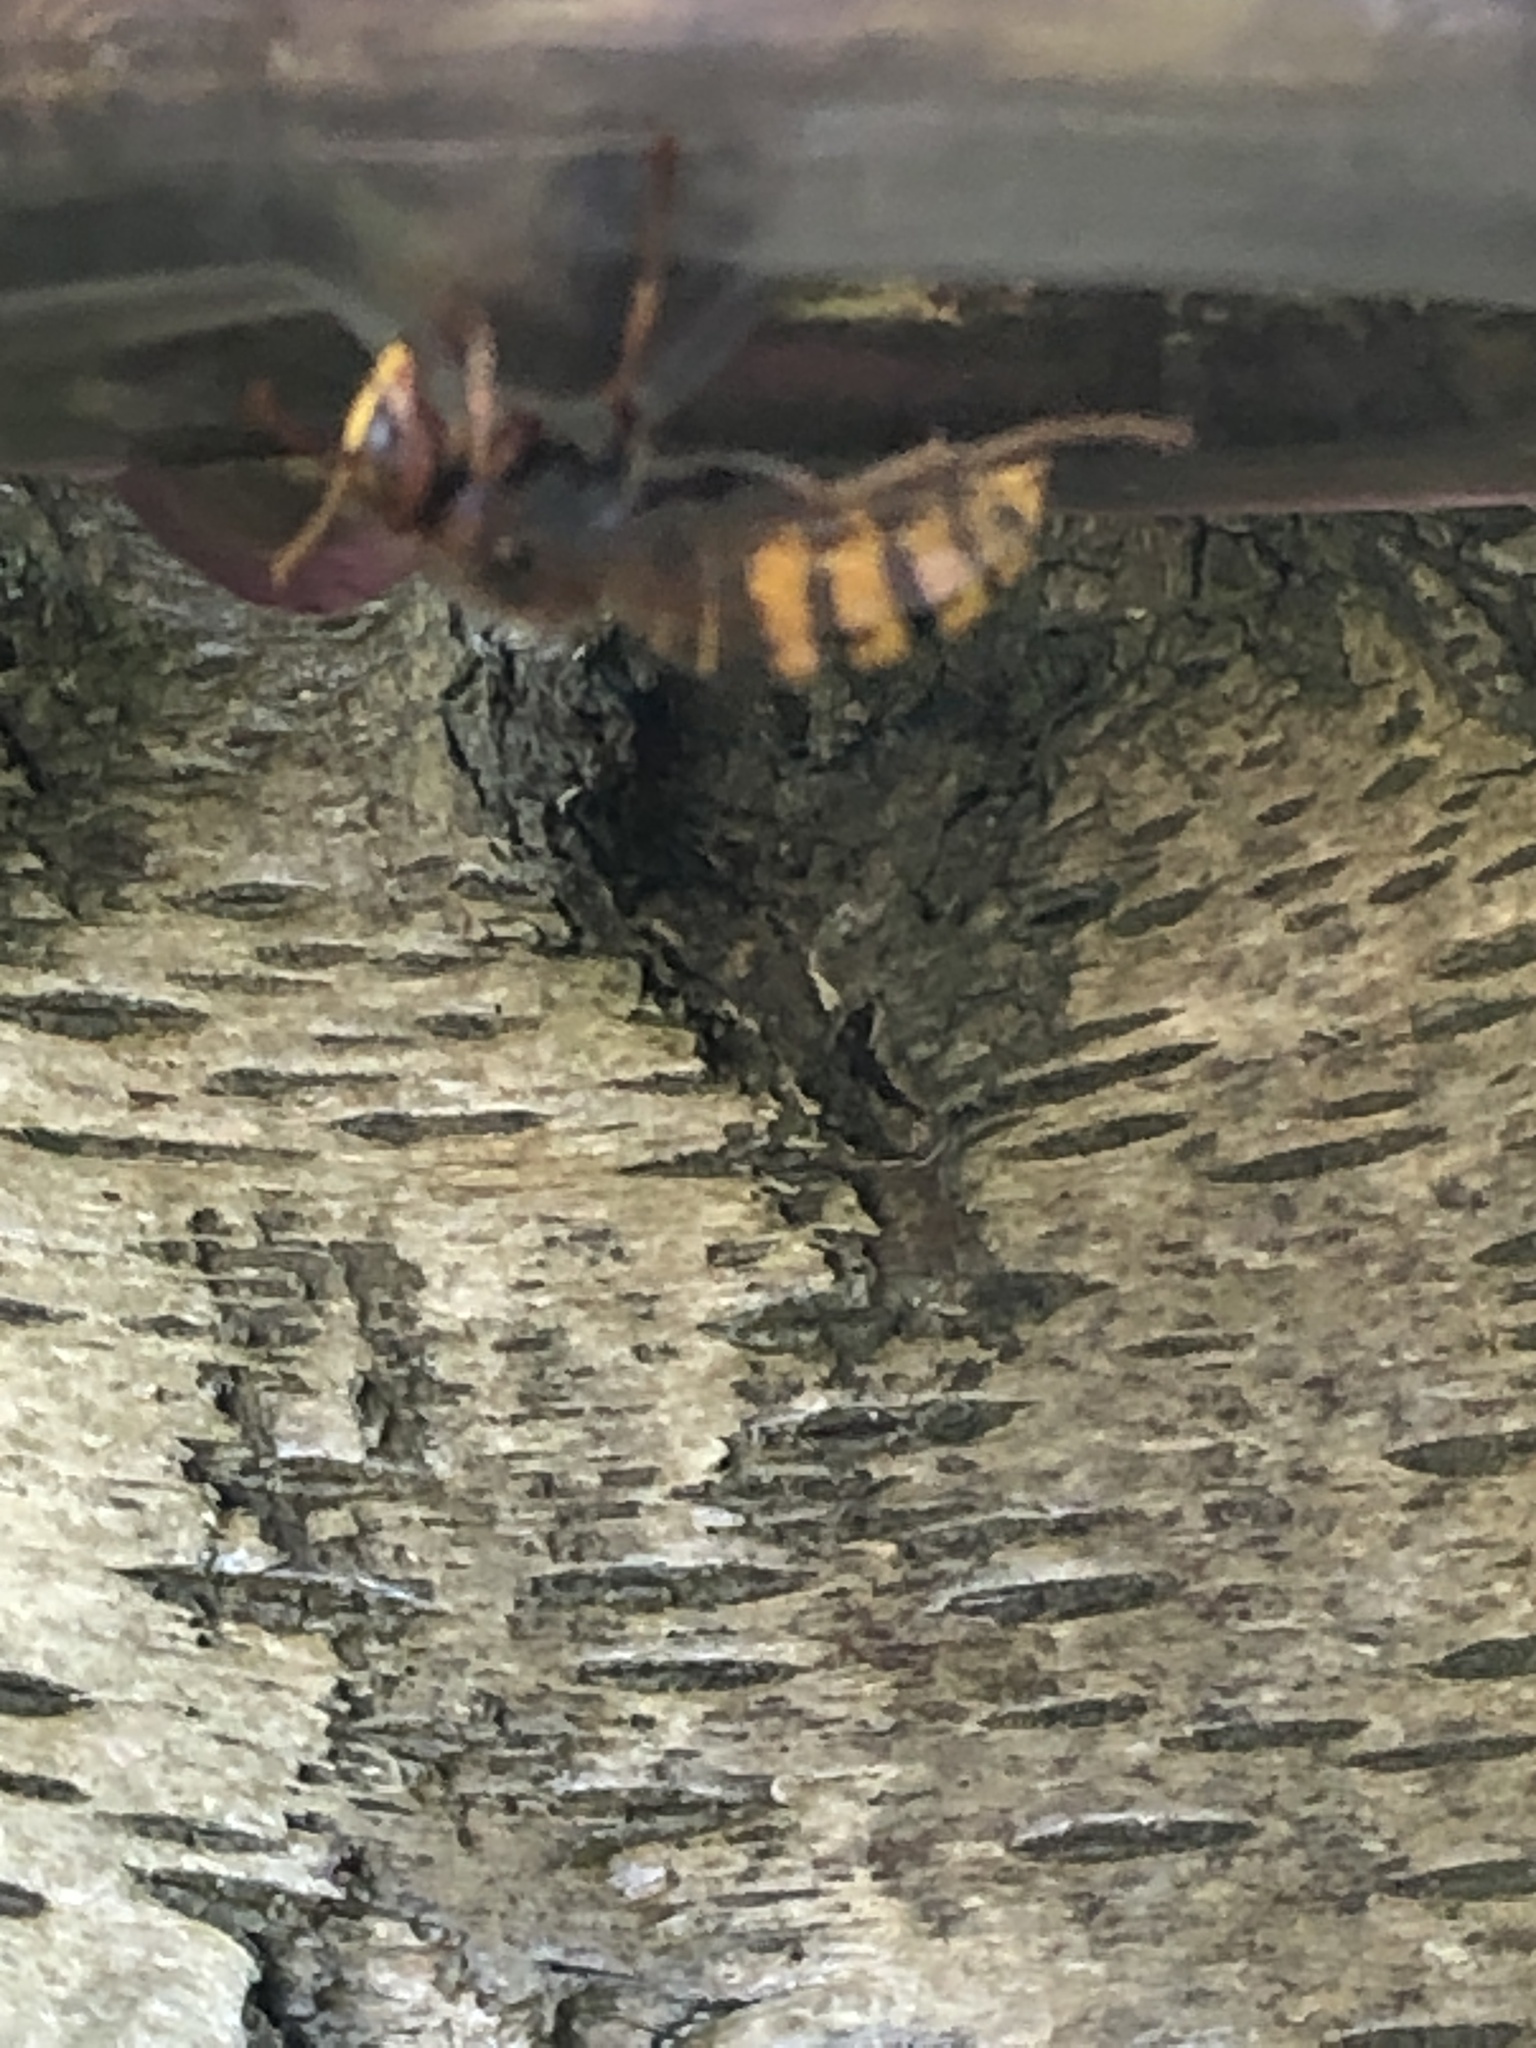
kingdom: Animalia
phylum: Arthropoda
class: Insecta
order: Hymenoptera
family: Vespidae
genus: Vespa
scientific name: Vespa crabro
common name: Hornet
